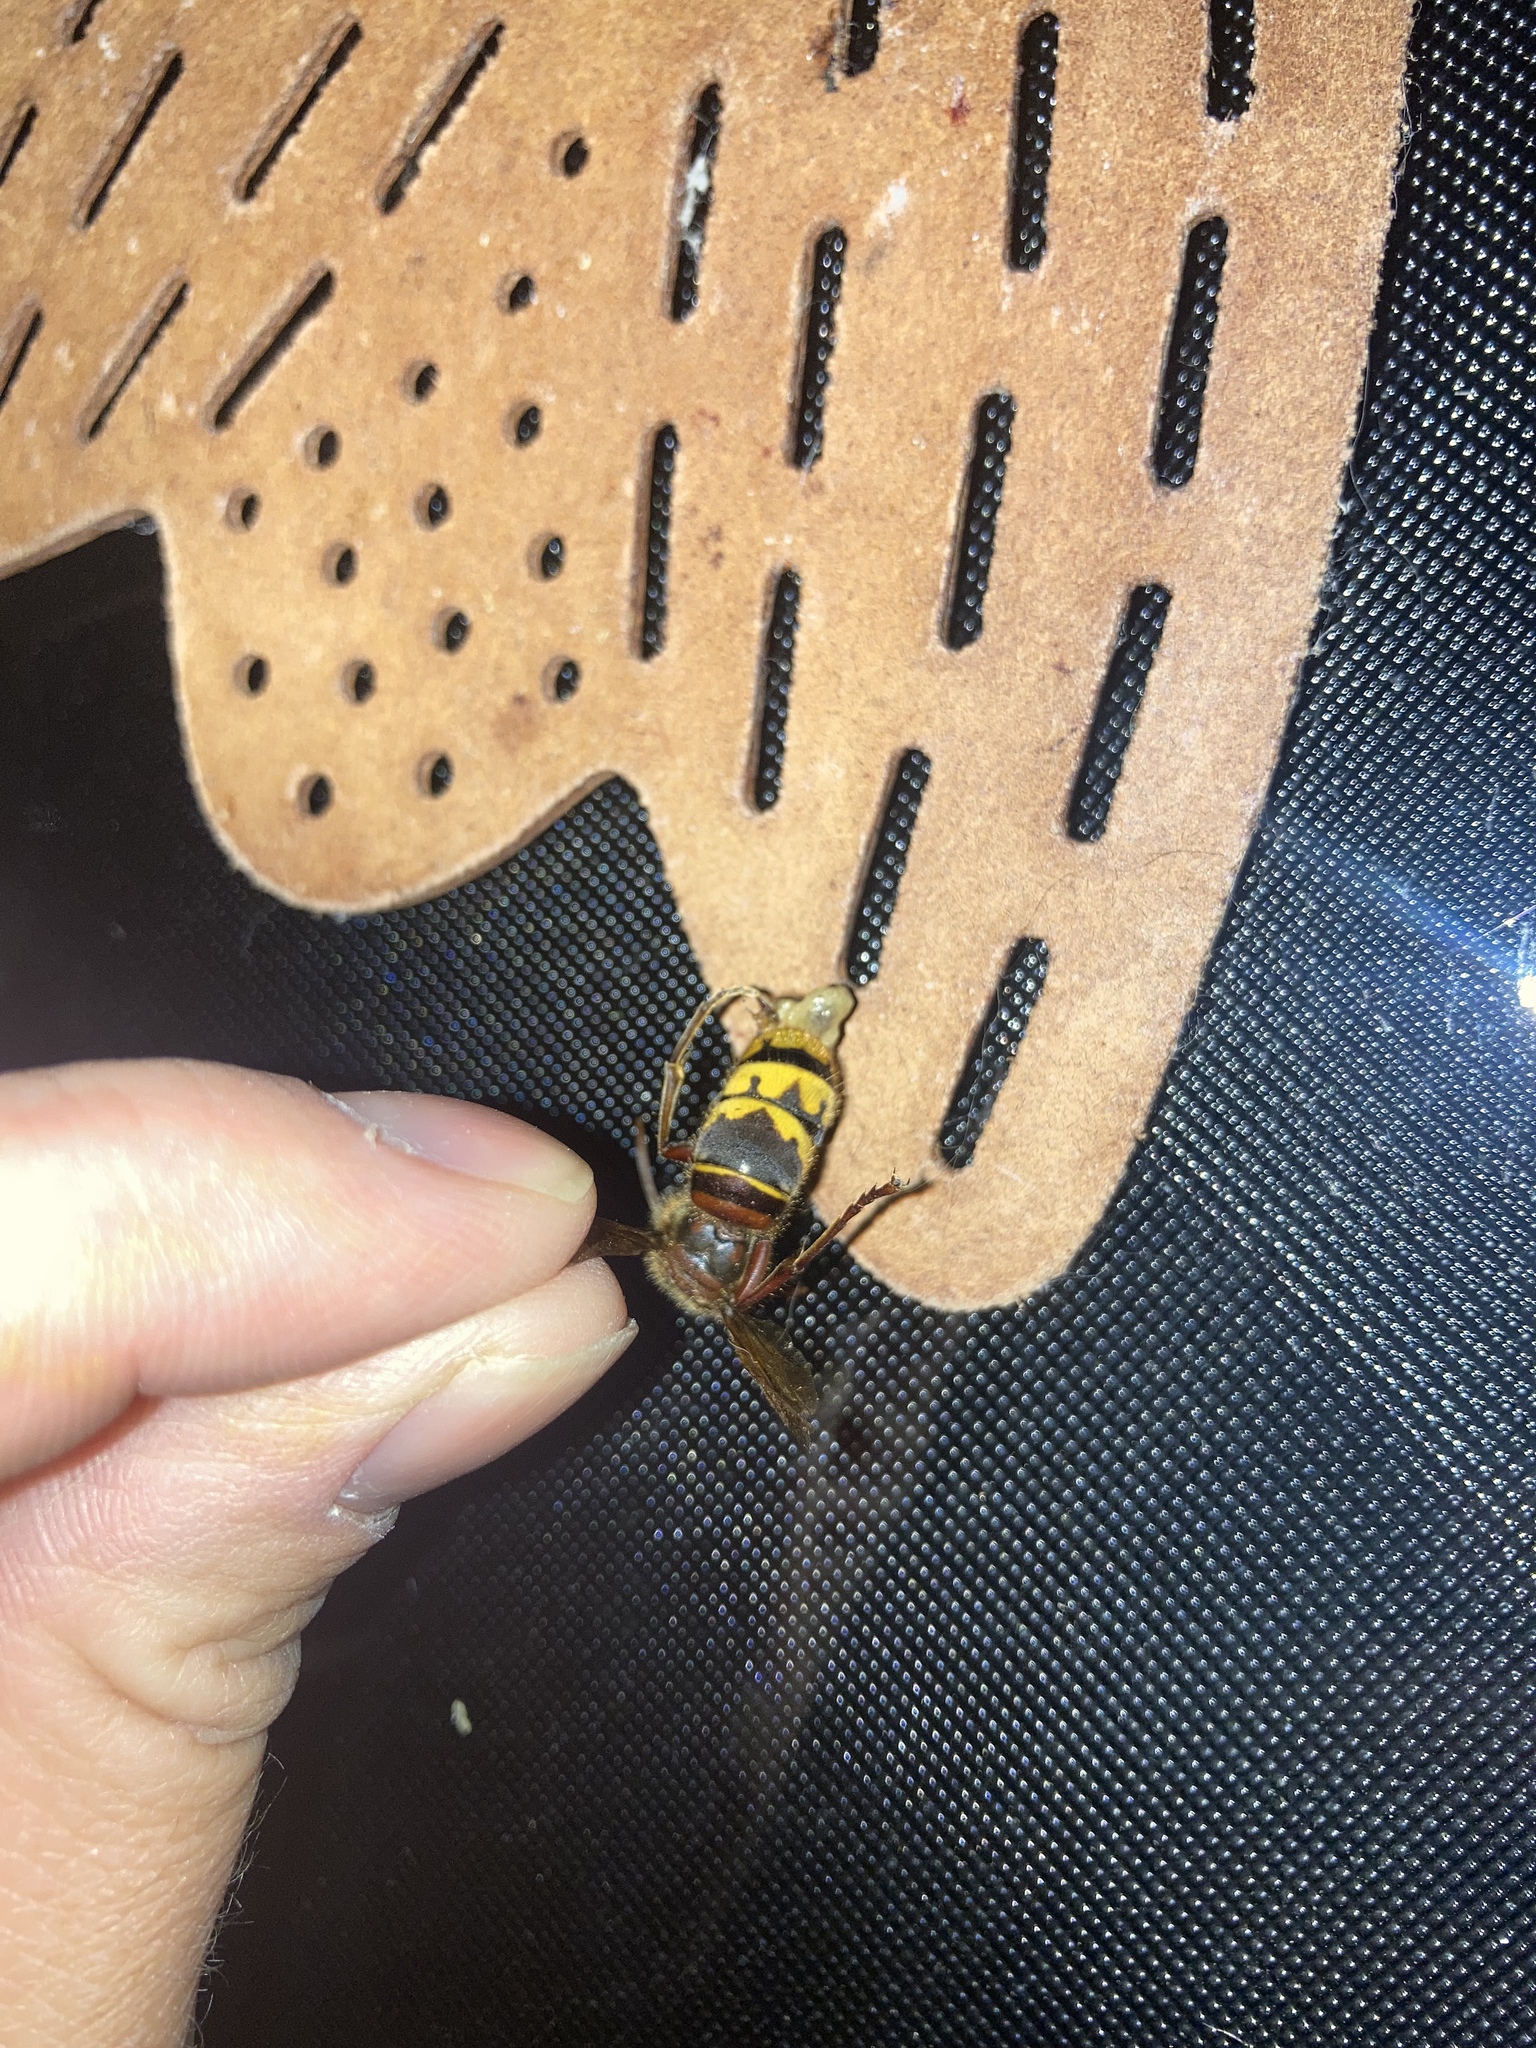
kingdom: Animalia
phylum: Arthropoda
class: Insecta
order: Hymenoptera
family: Vespidae
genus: Vespa
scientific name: Vespa crabro
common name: Hornet
